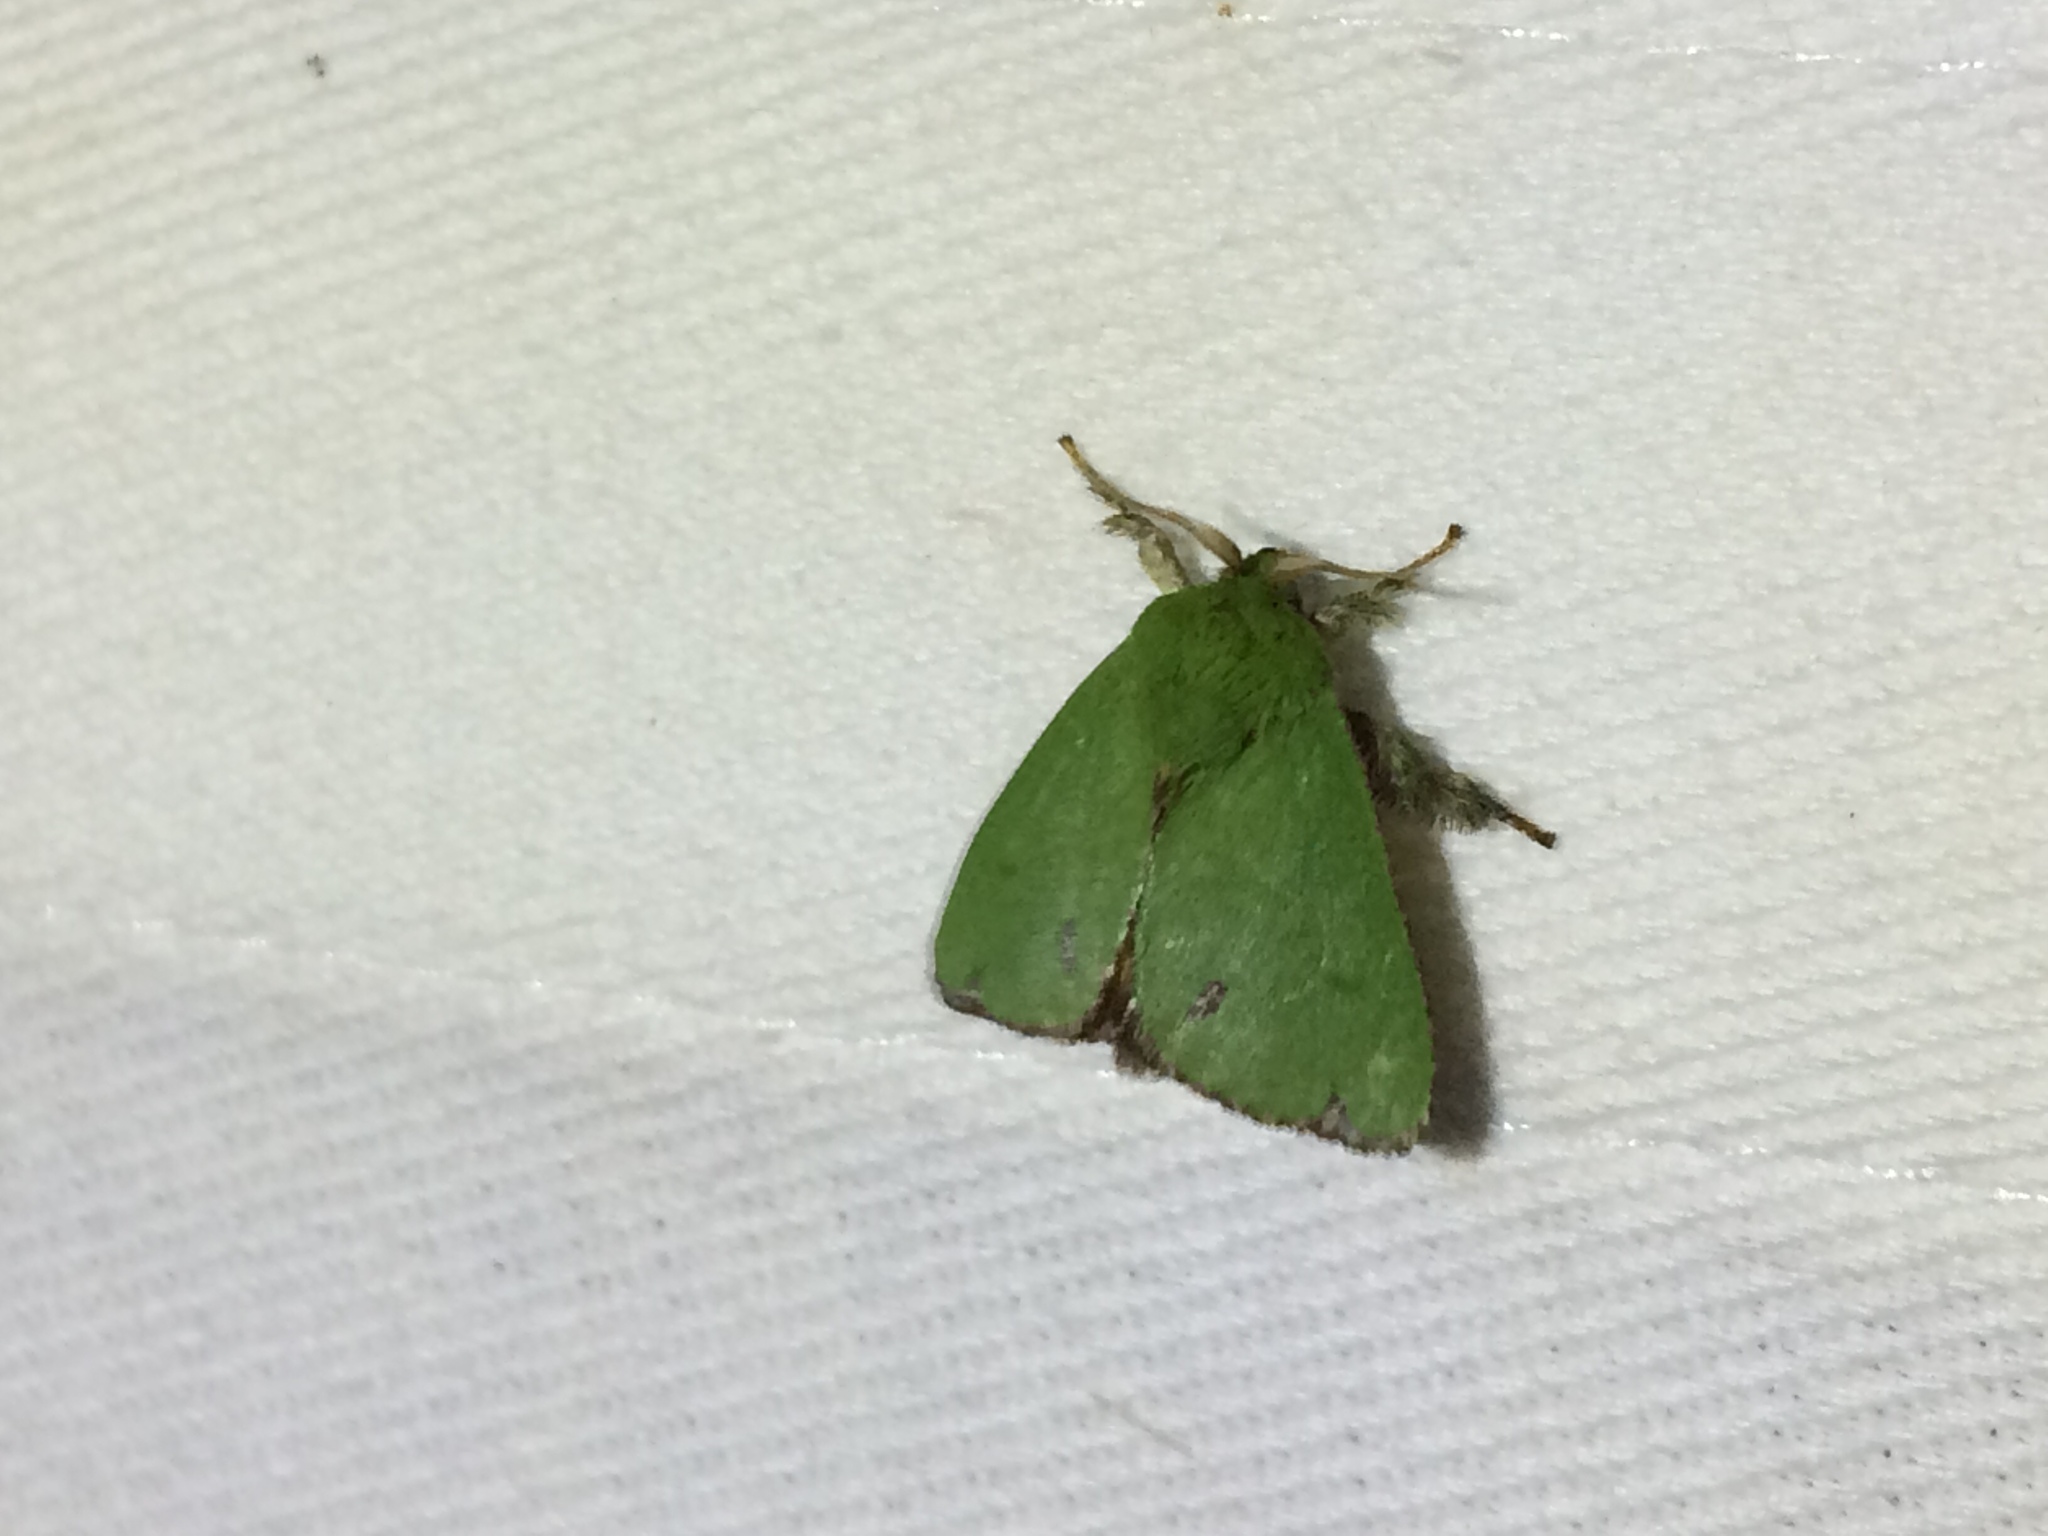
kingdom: Animalia
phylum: Arthropoda
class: Insecta
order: Lepidoptera
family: Limacodidae
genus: Parasa
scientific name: Parasa herbina
